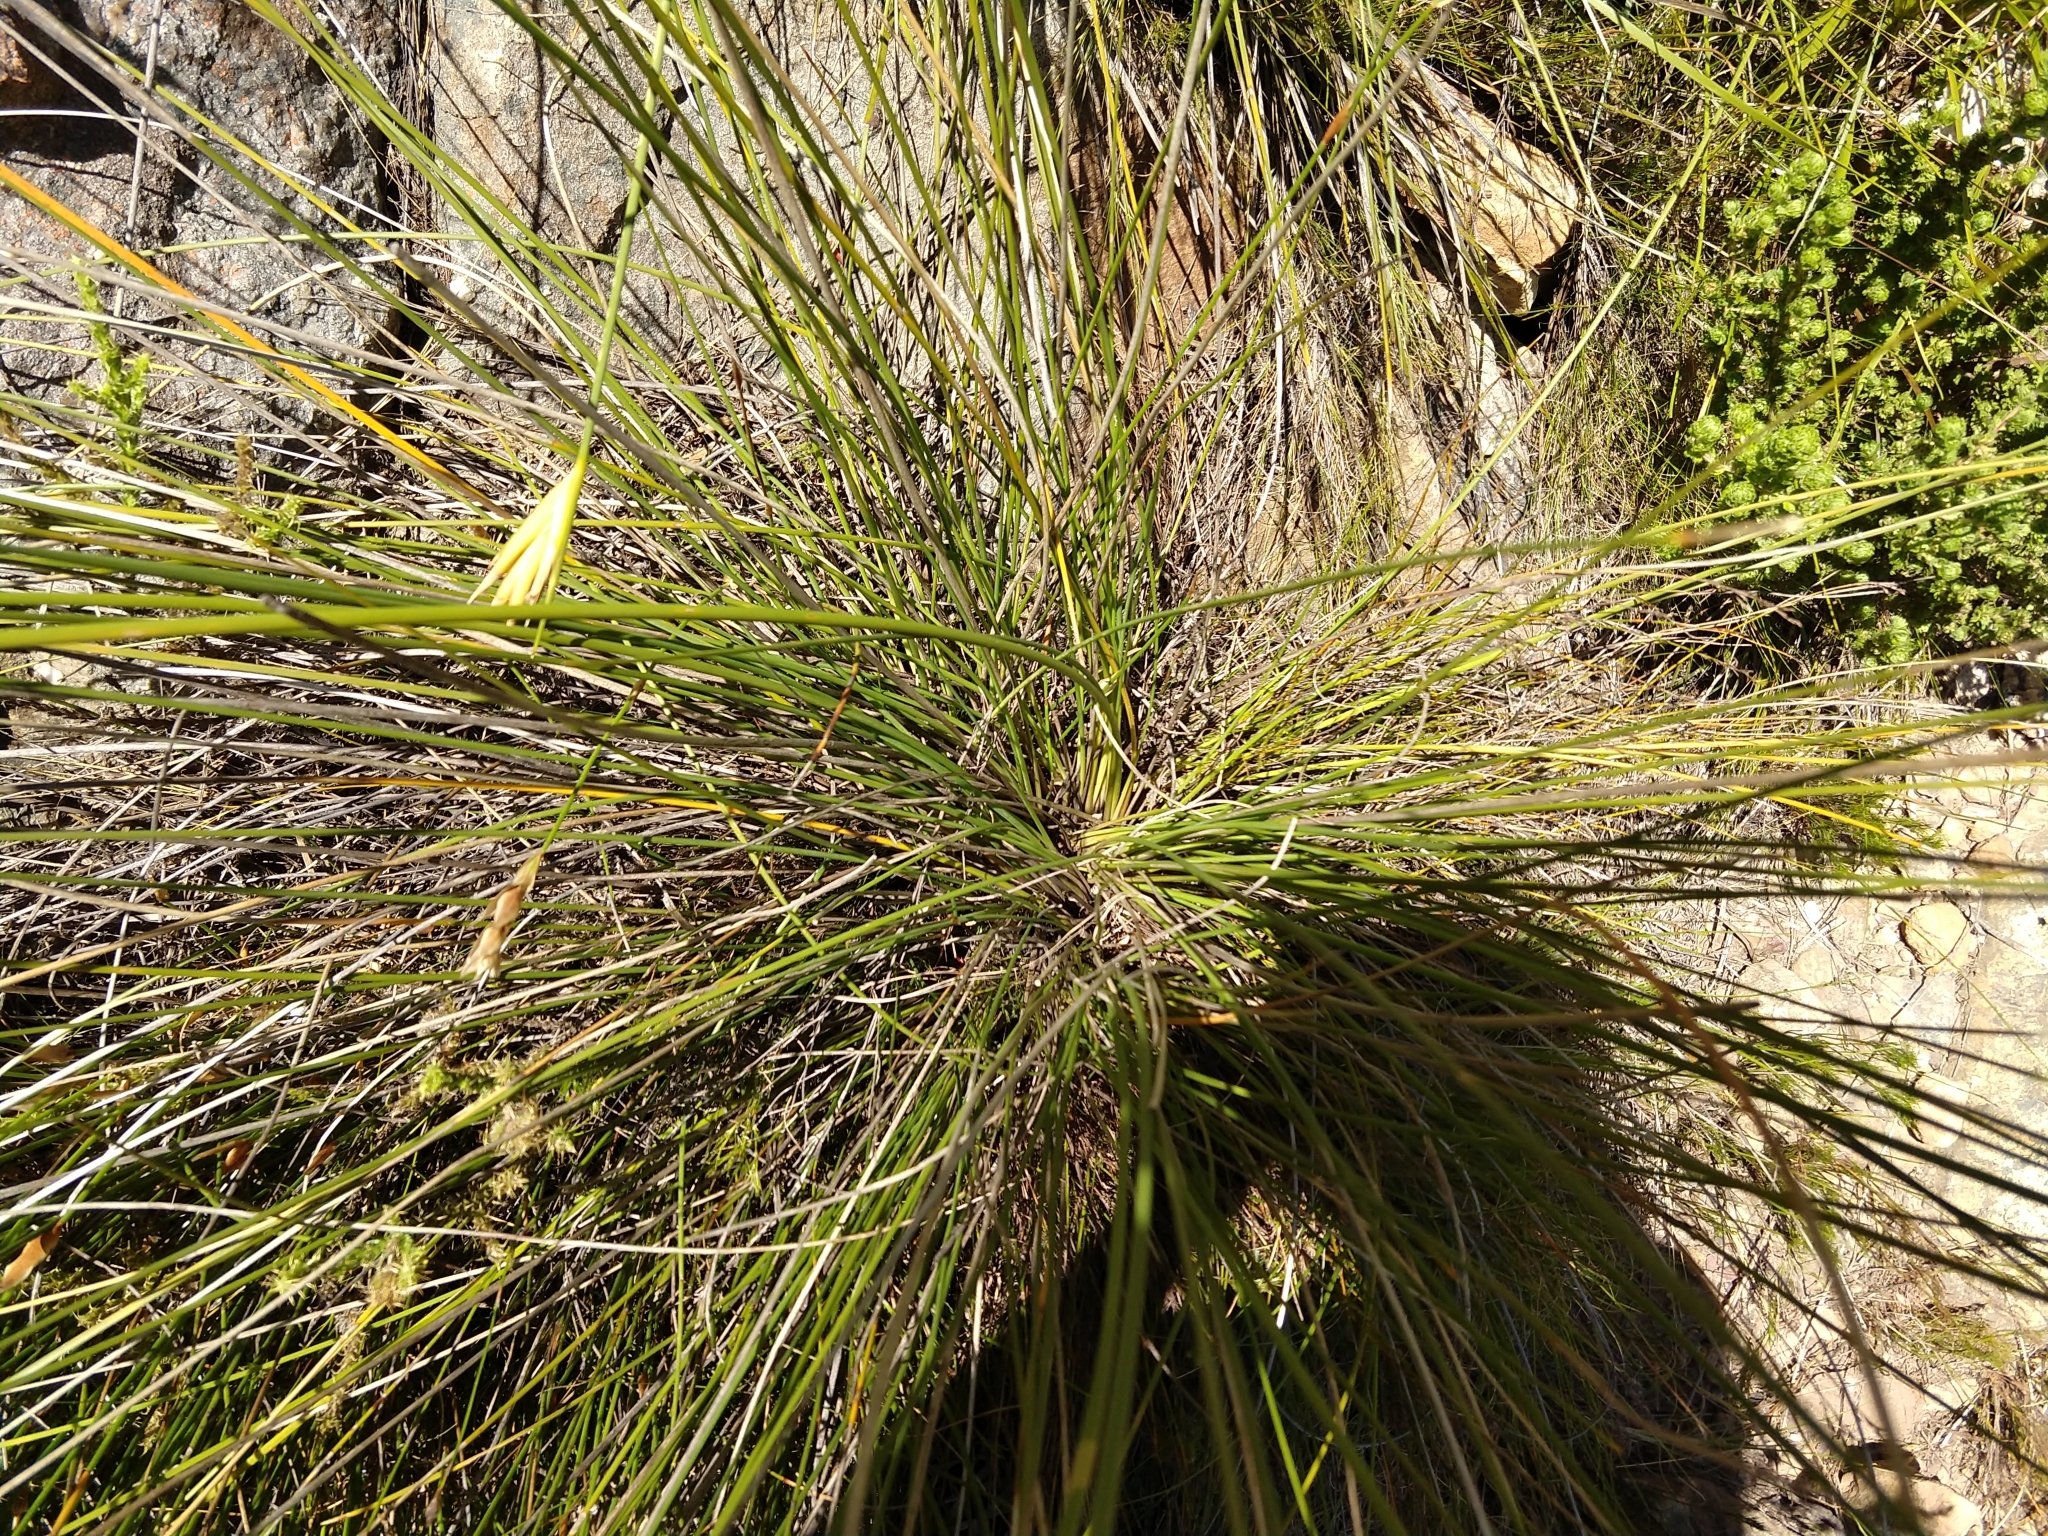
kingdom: Plantae
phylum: Tracheophyta
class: Liliopsida
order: Asparagales
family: Iridaceae
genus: Bobartia
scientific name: Bobartia indica
